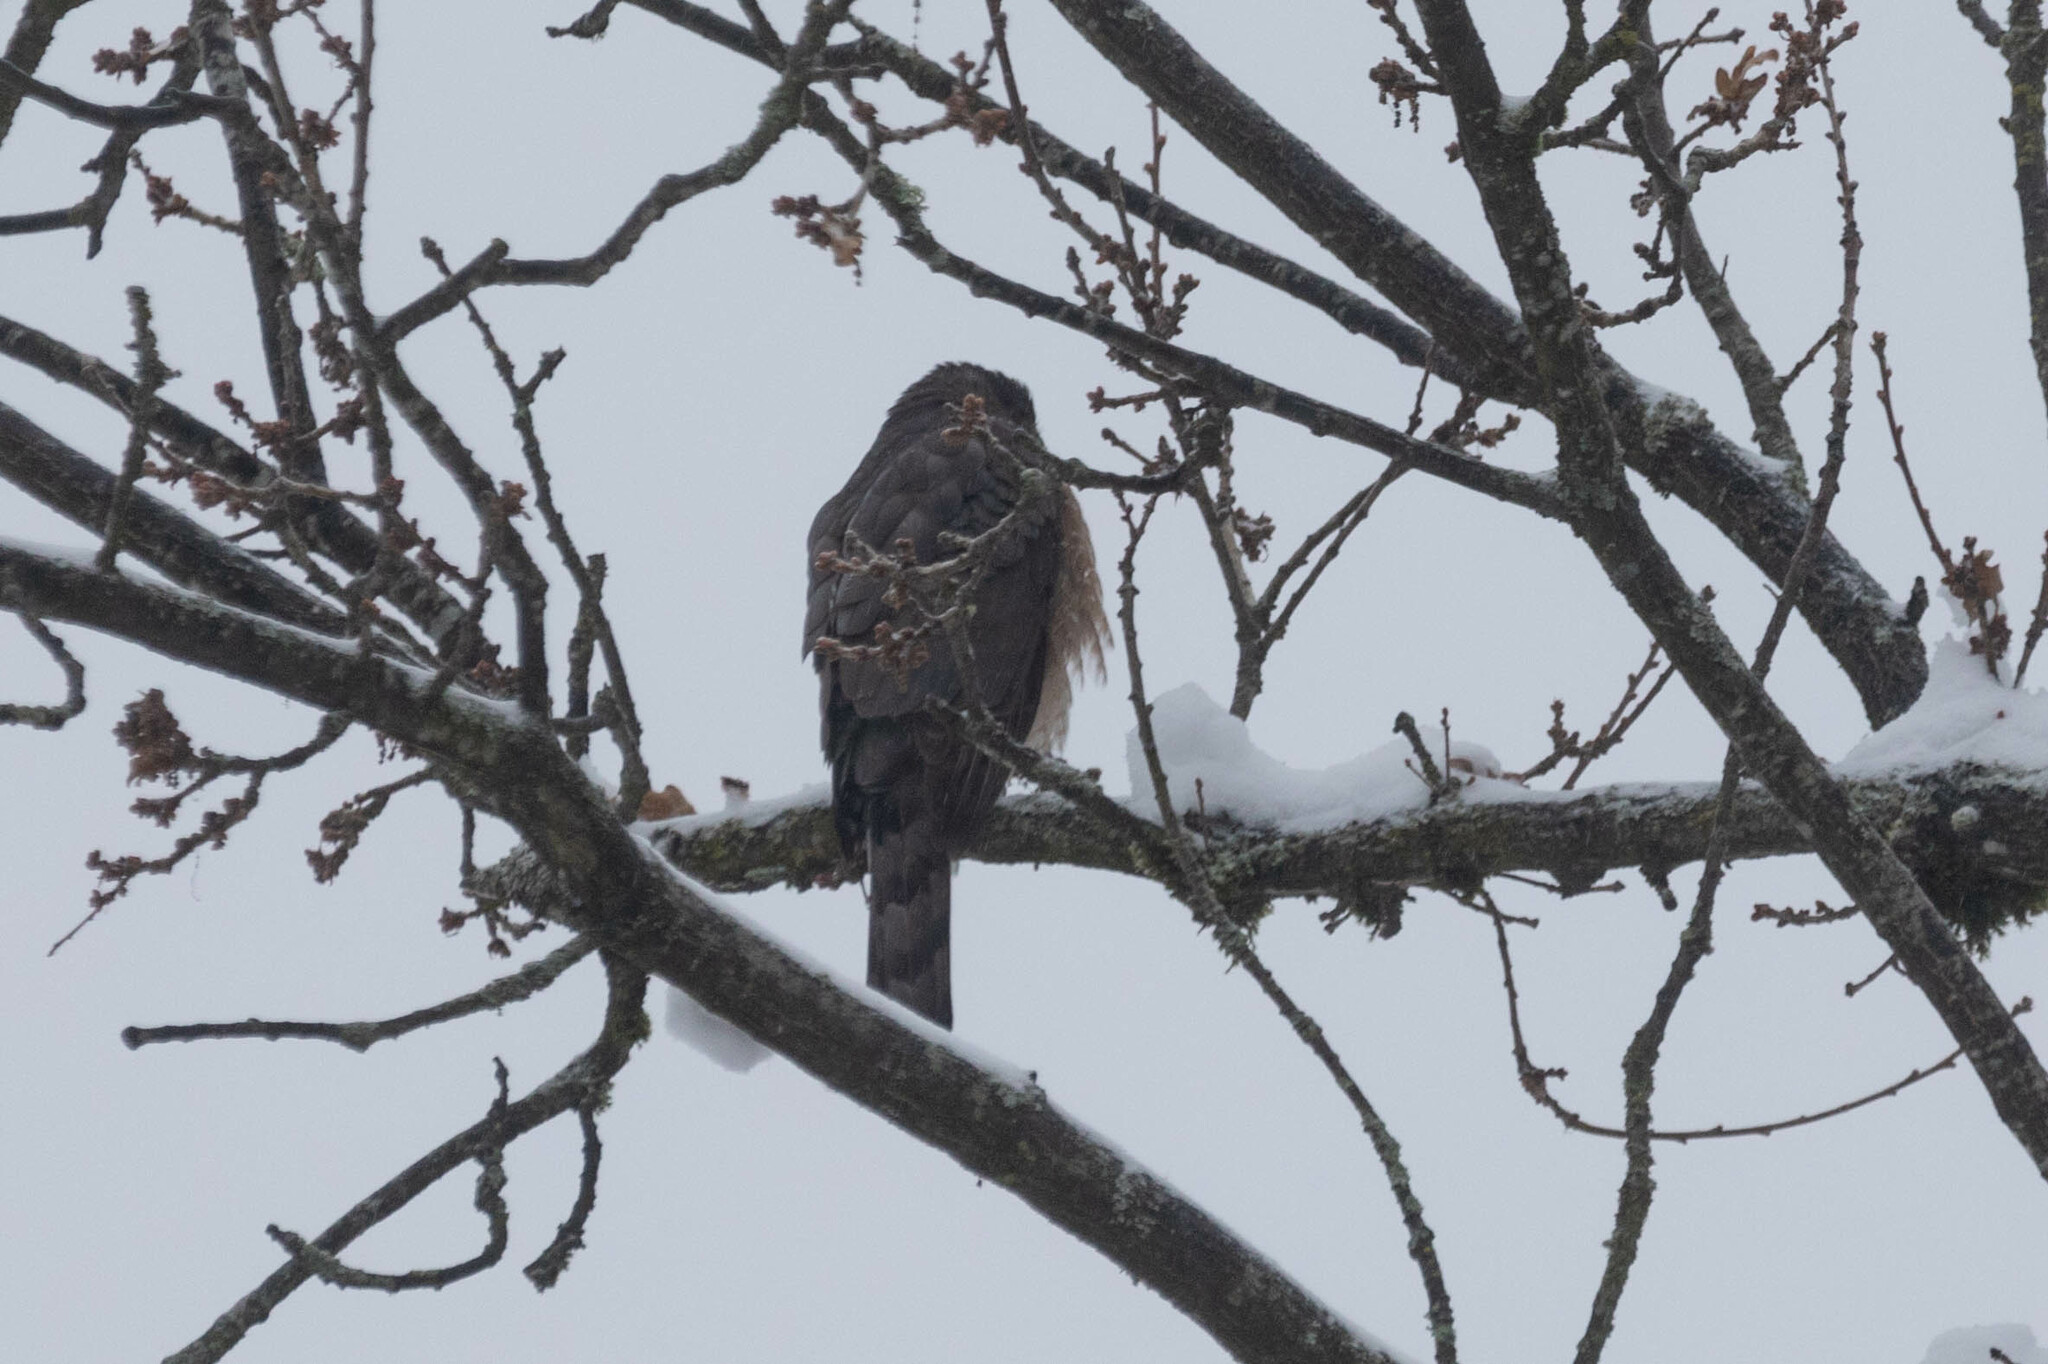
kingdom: Animalia
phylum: Chordata
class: Aves
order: Accipitriformes
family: Accipitridae
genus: Accipiter
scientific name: Accipiter cooperii
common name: Cooper's hawk
